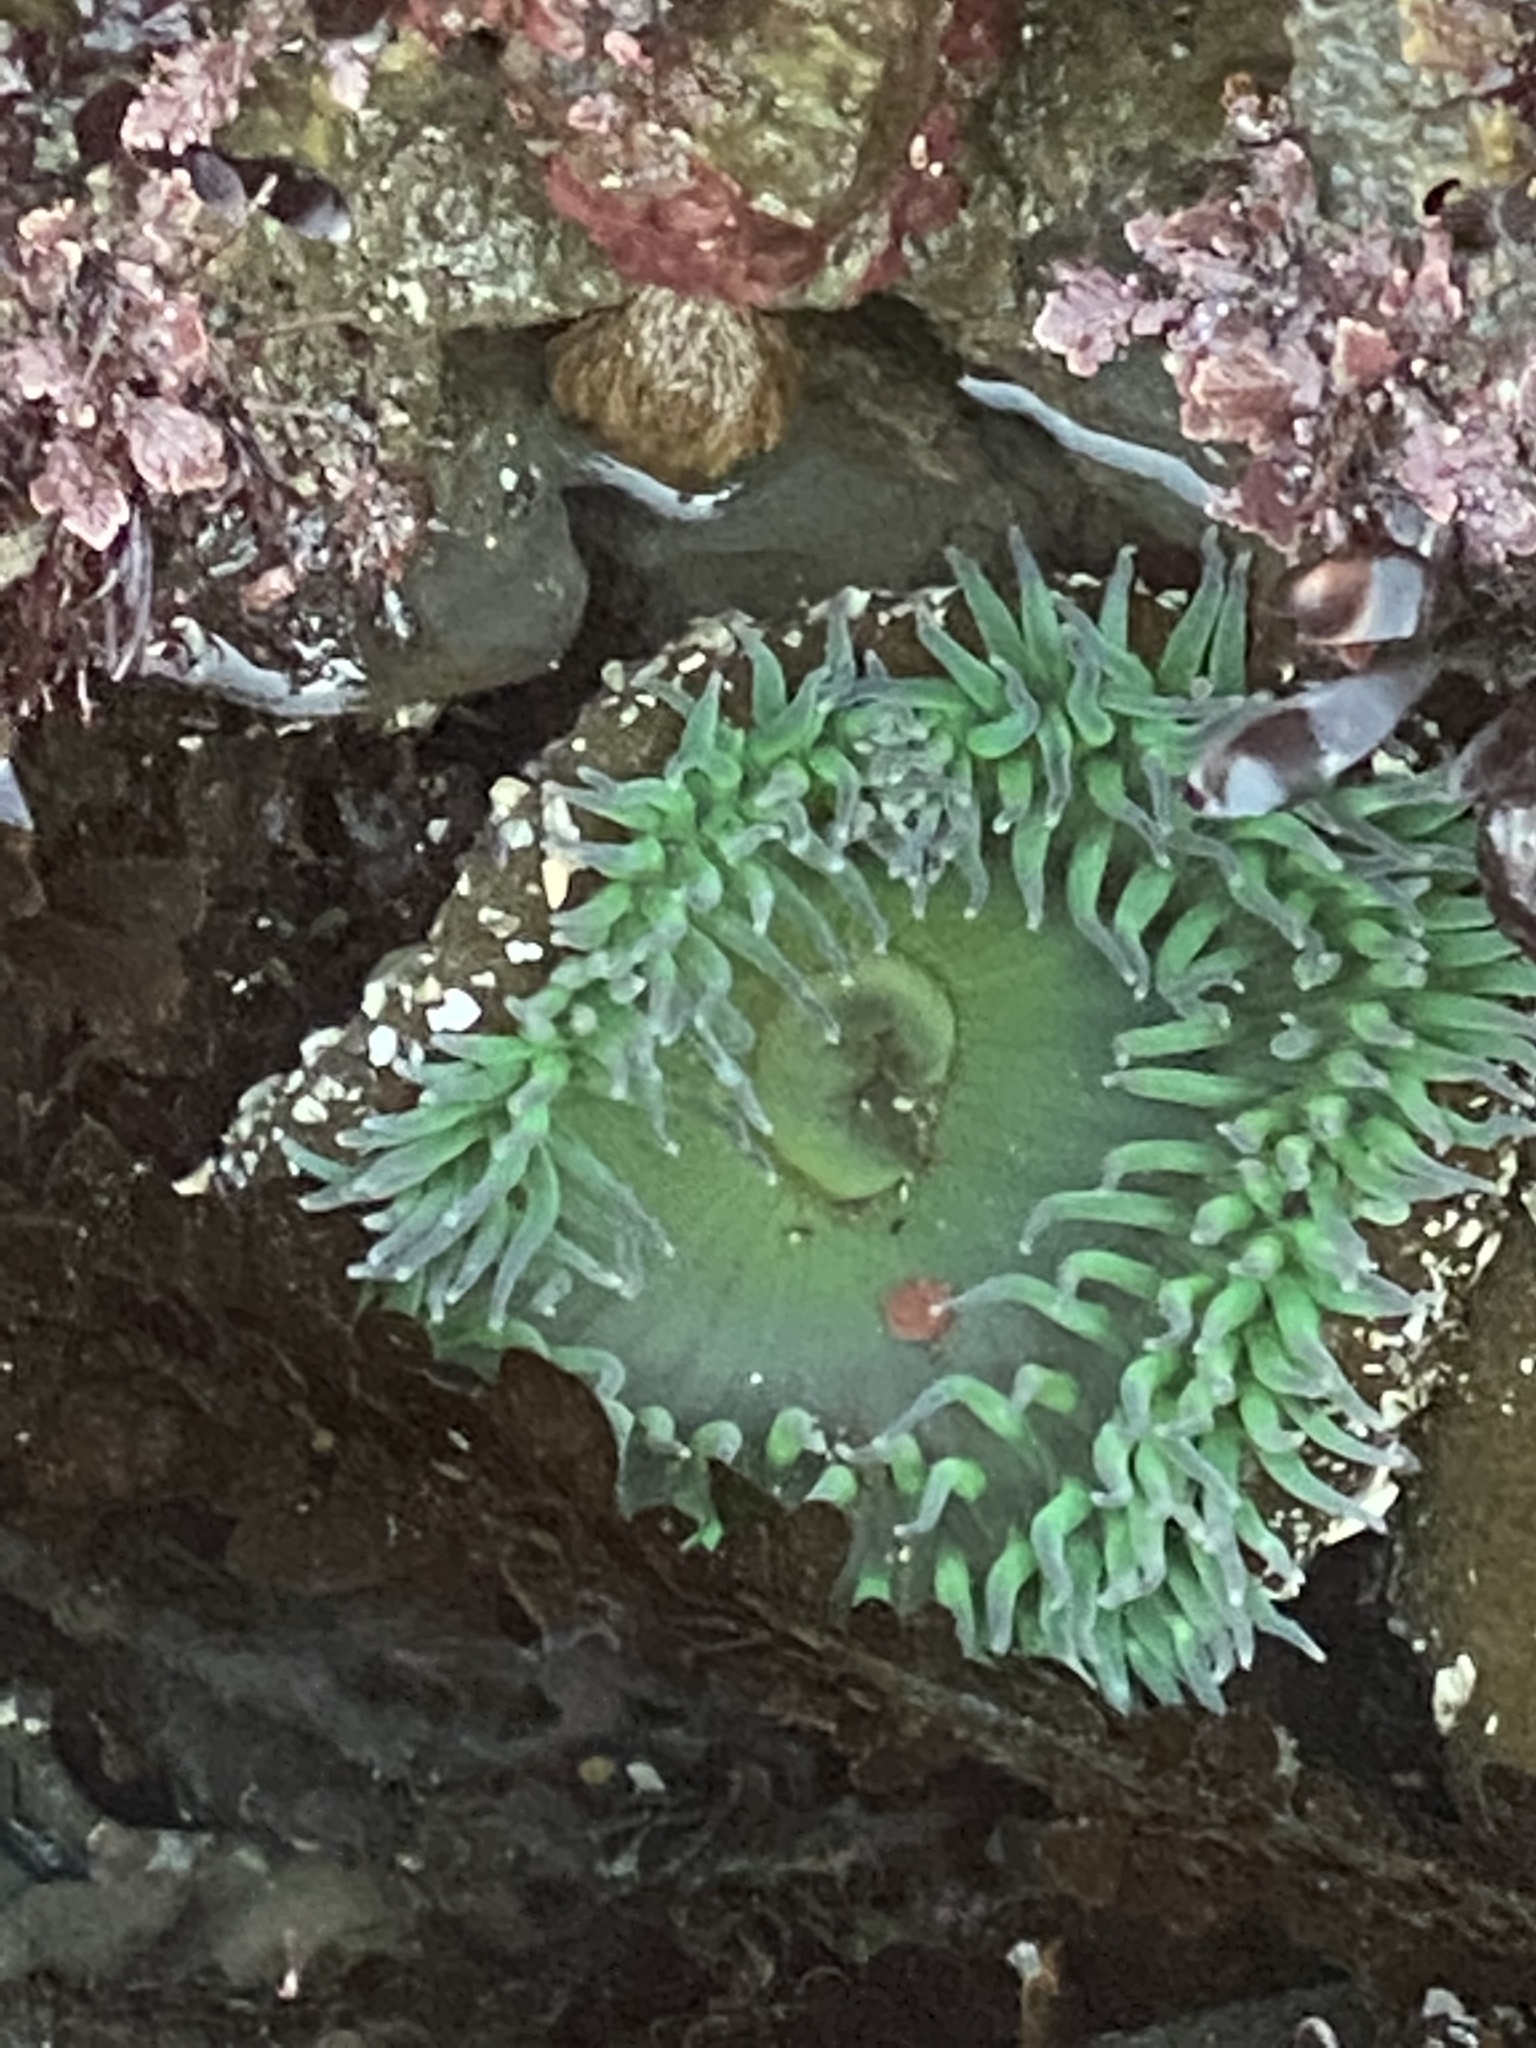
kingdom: Animalia
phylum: Cnidaria
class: Anthozoa
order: Actiniaria
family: Actiniidae
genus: Anthopleura
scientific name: Anthopleura xanthogrammica
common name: Giant green anemone
